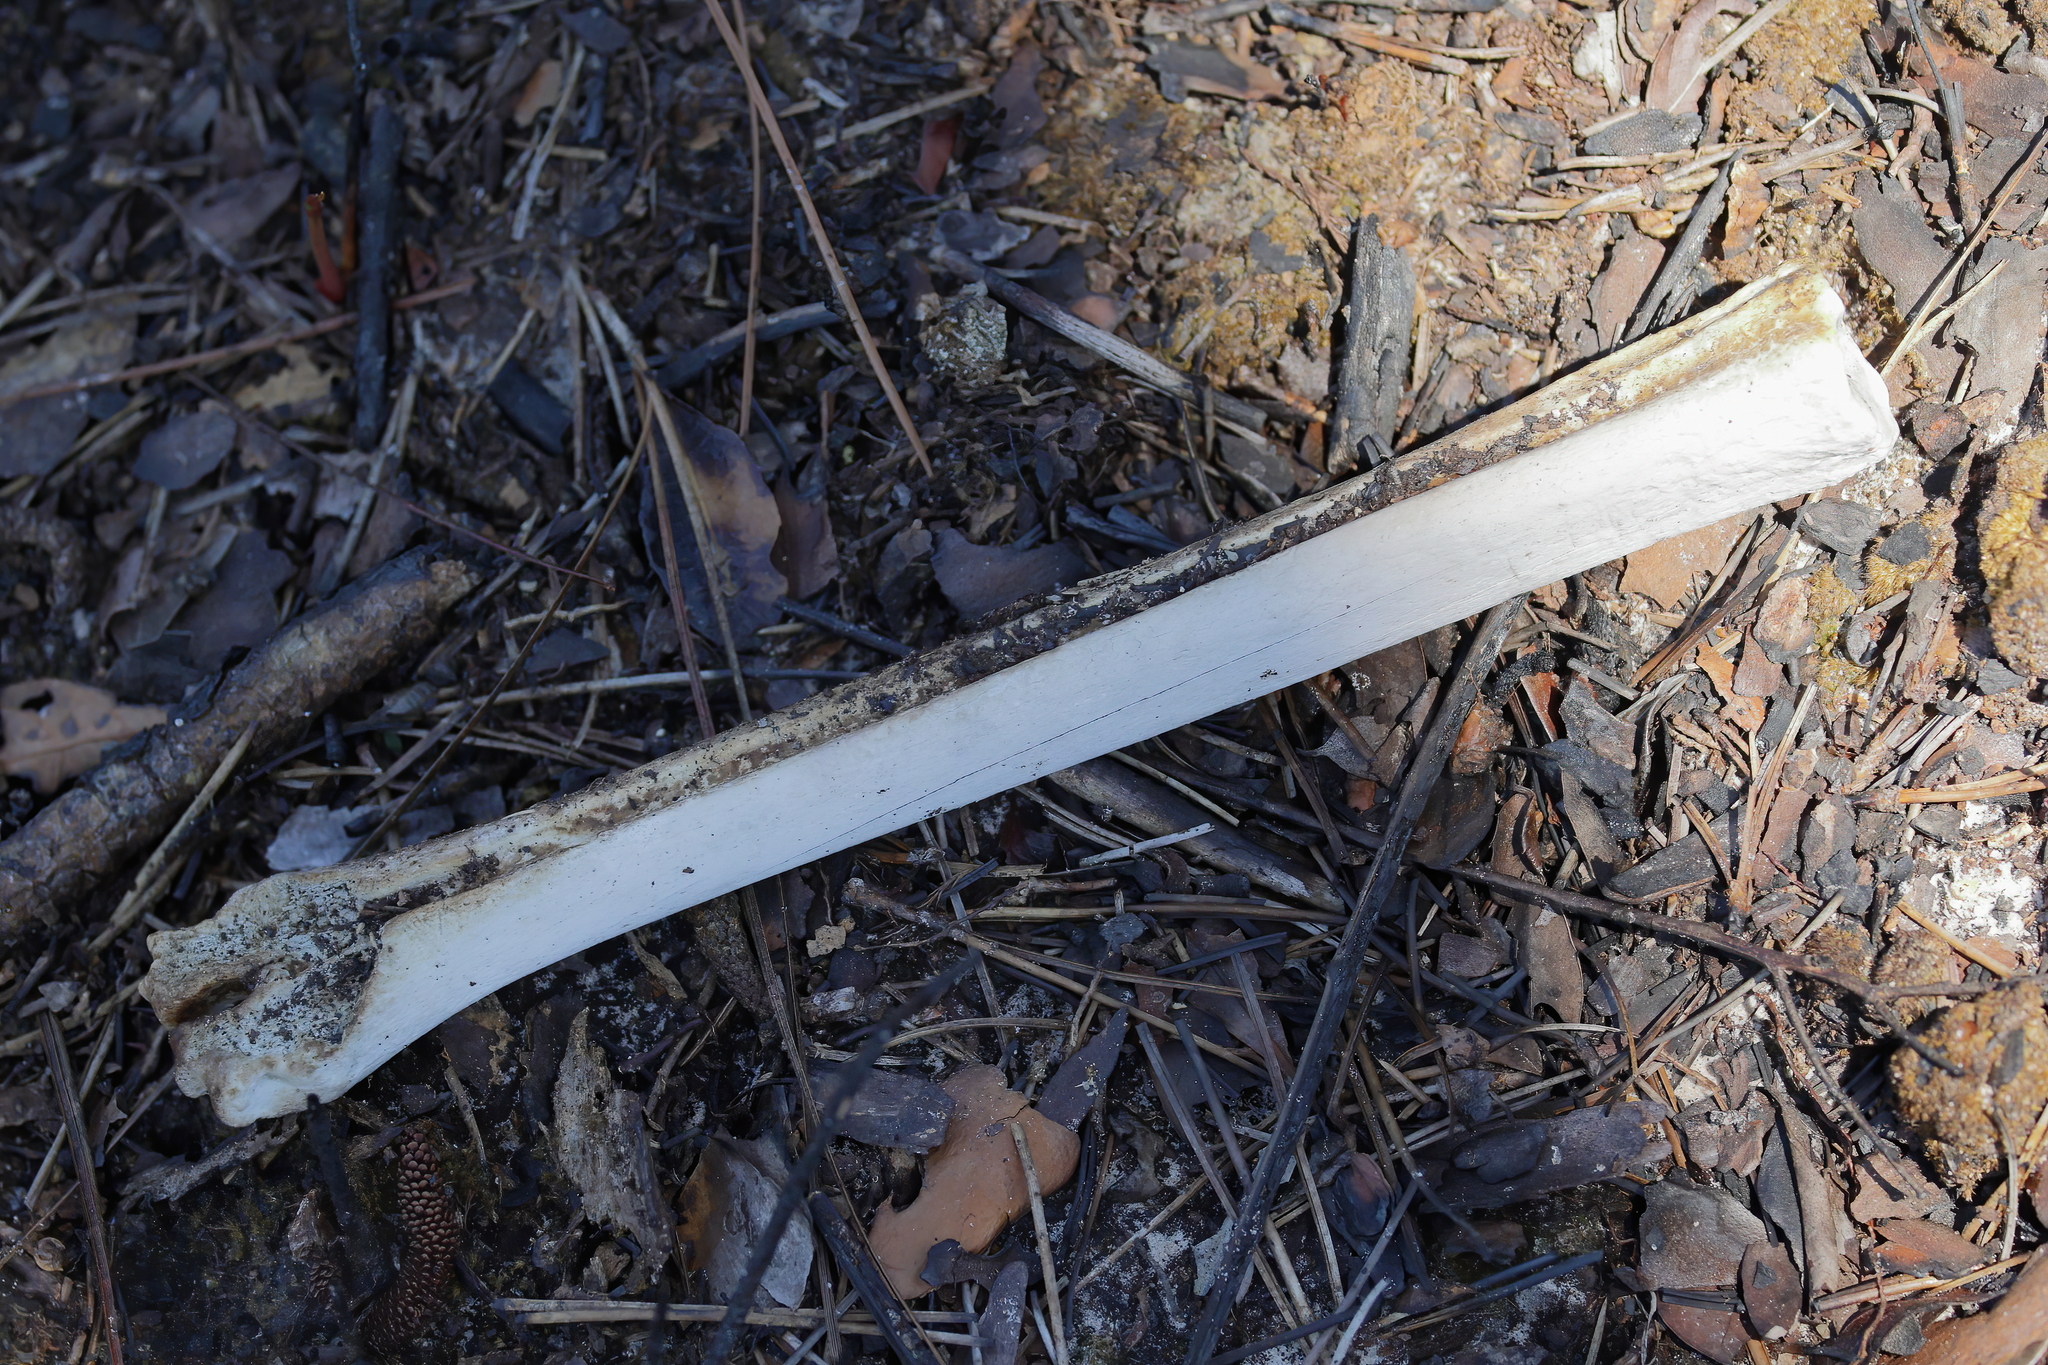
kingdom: Animalia
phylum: Chordata
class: Mammalia
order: Artiodactyla
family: Cervidae
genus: Odocoileus
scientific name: Odocoileus virginianus
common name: White-tailed deer
